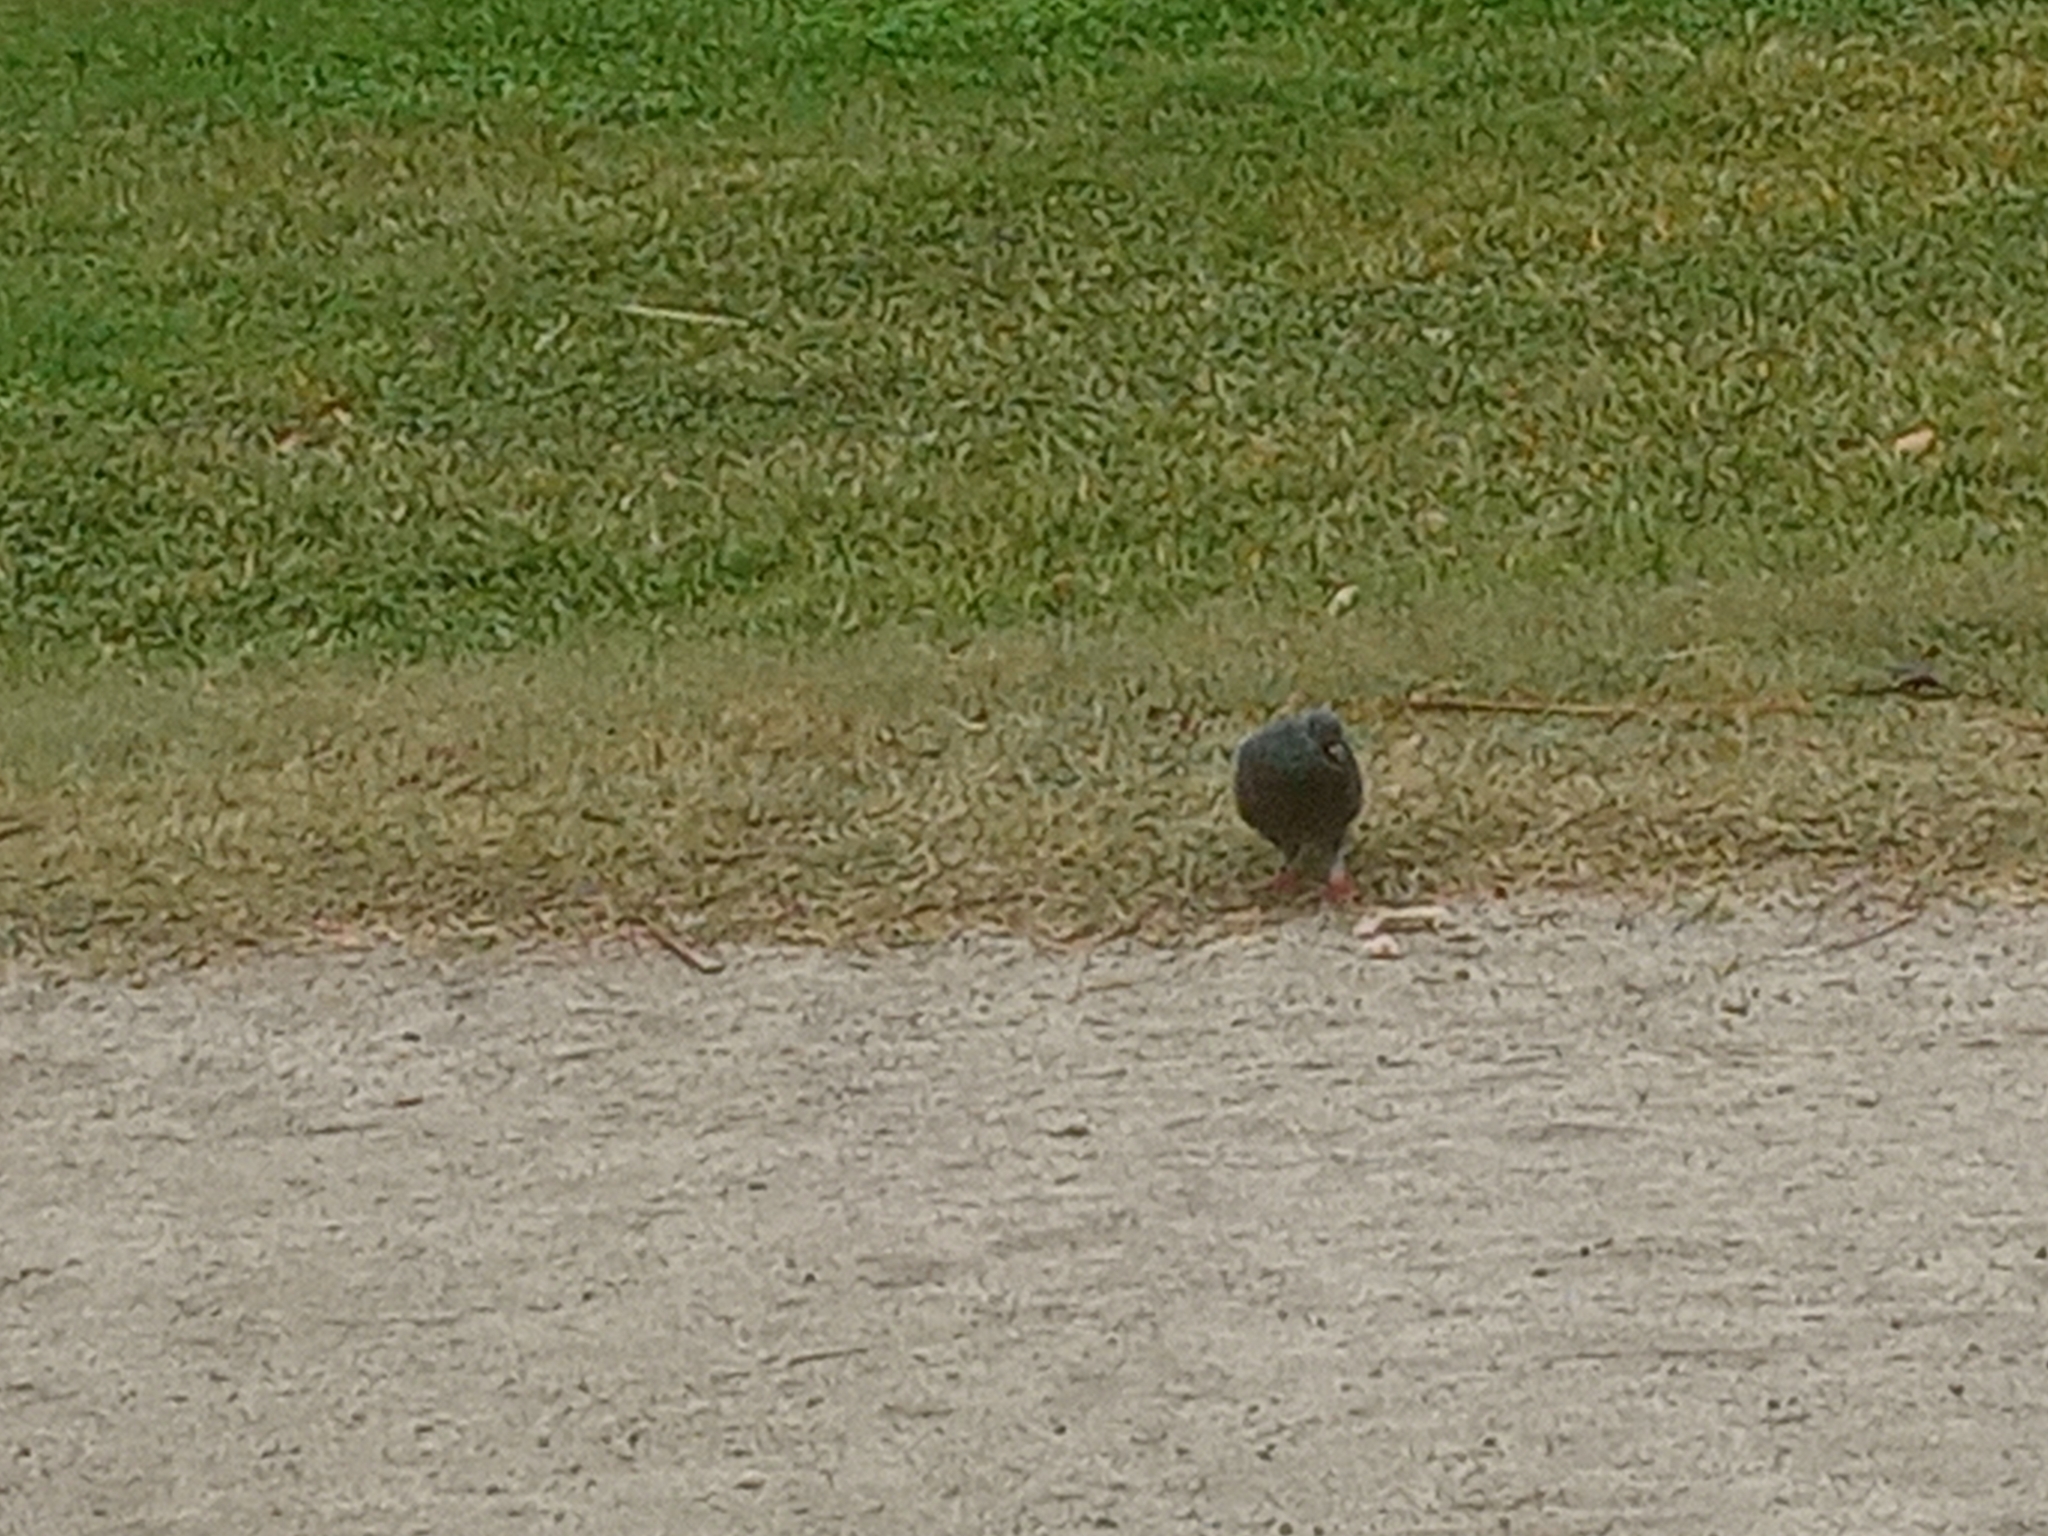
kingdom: Animalia
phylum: Chordata
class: Aves
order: Columbiformes
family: Columbidae
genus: Columba
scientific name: Columba livia
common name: Rock pigeon
